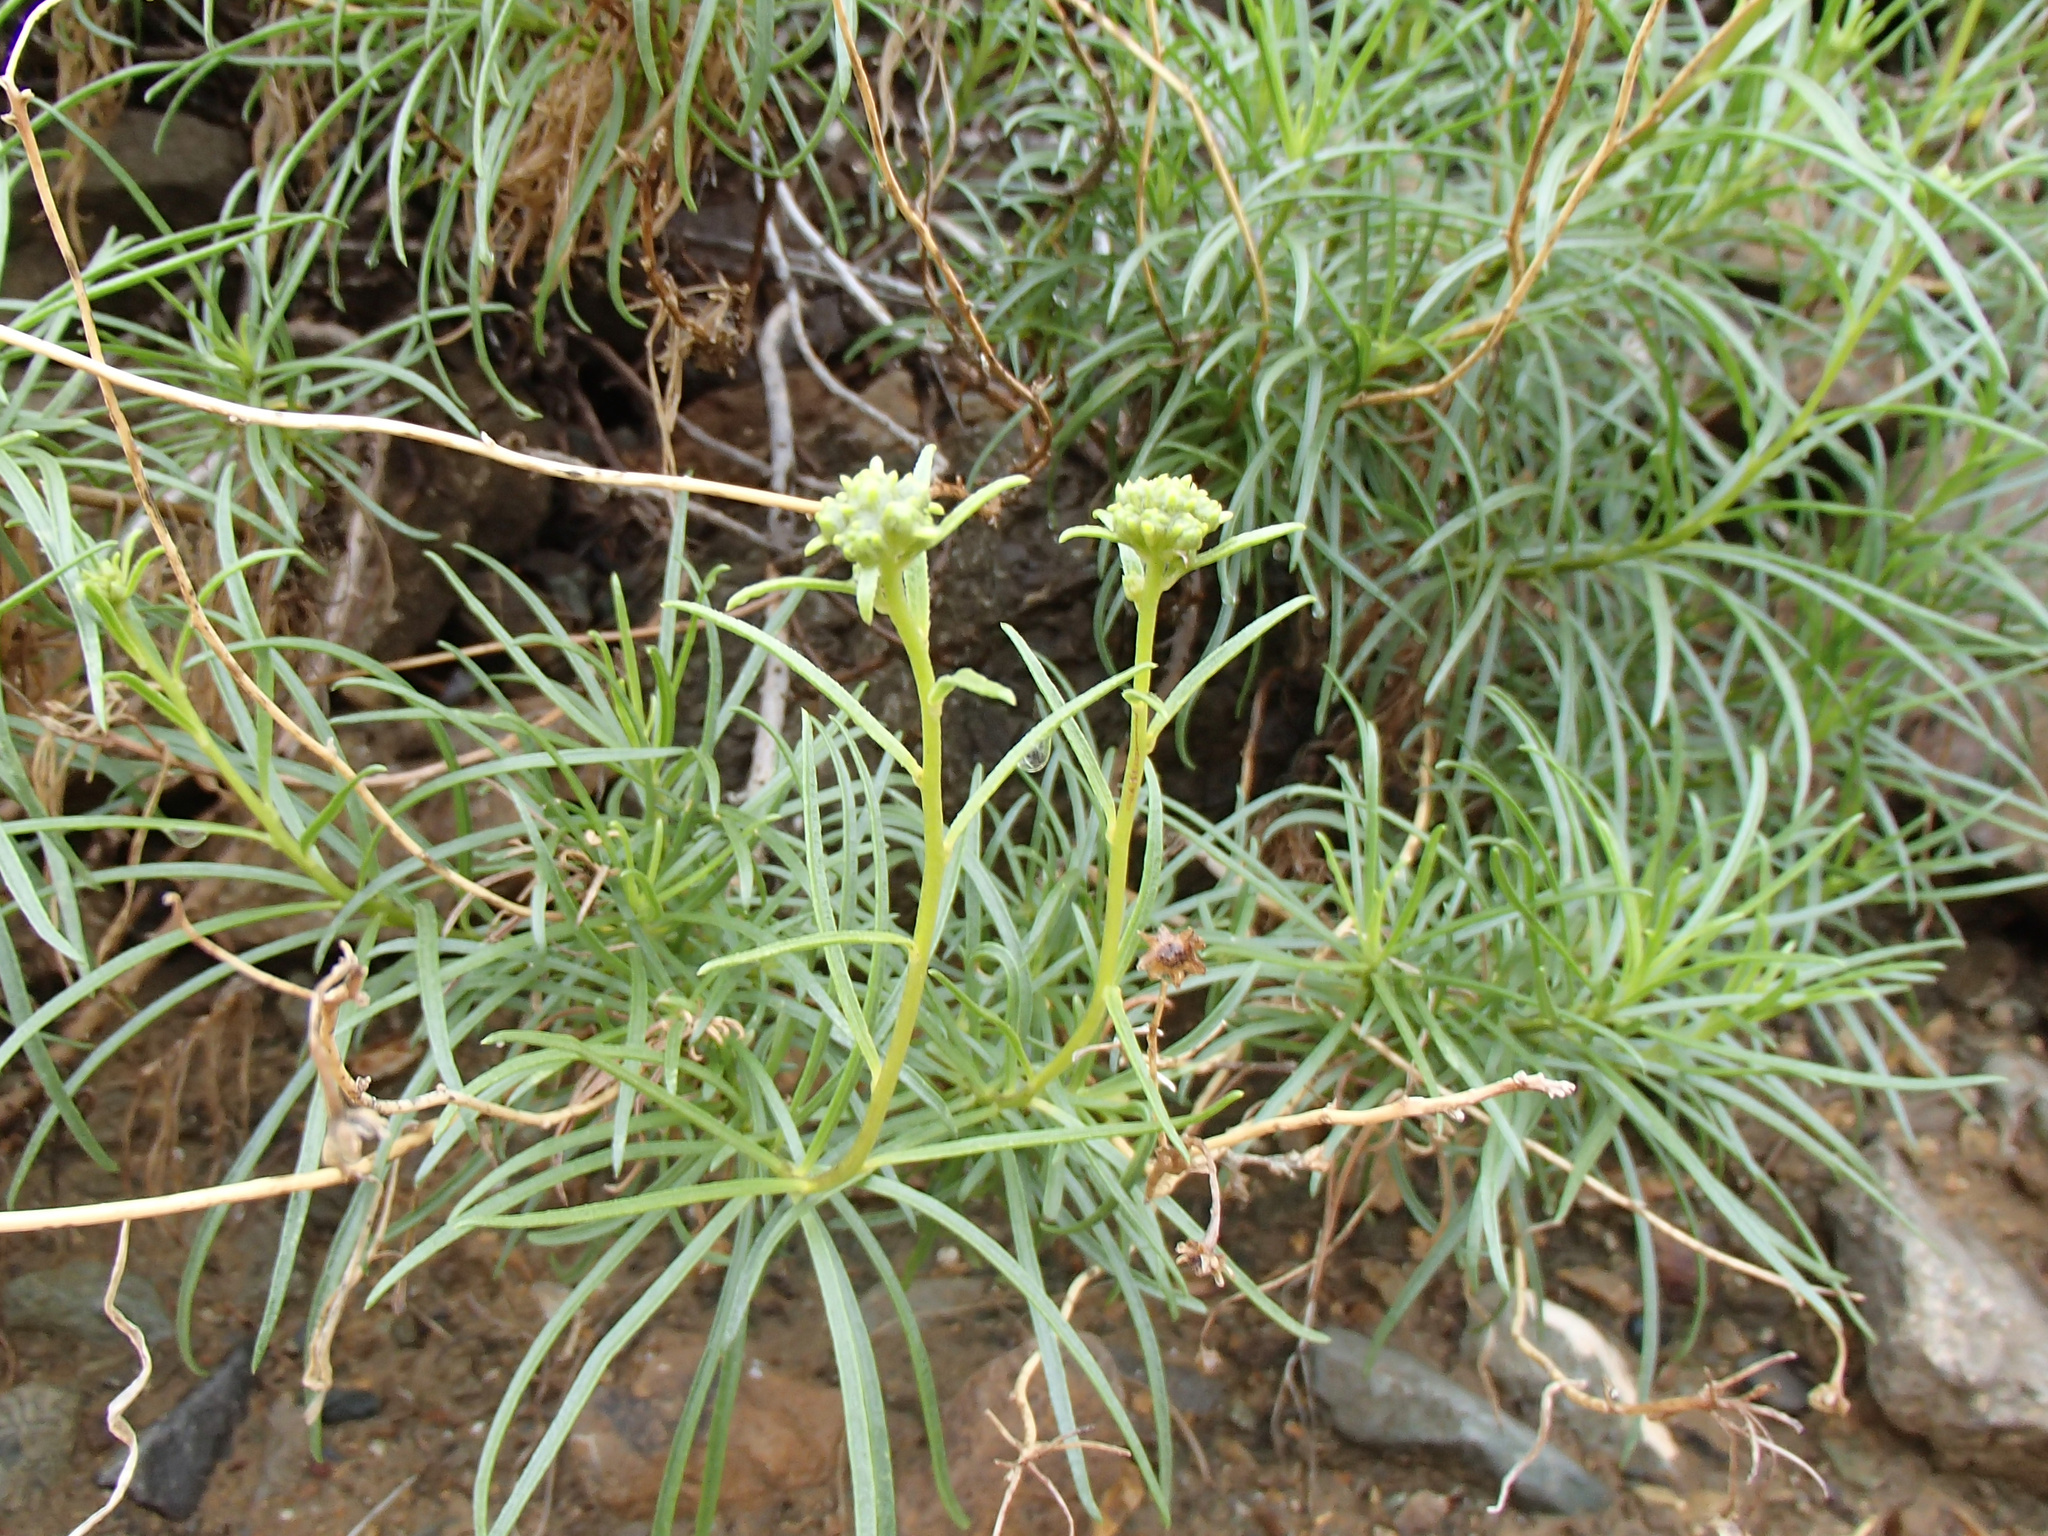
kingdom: Plantae
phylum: Tracheophyta
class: Magnoliopsida
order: Asterales
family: Asteraceae
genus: Encelia
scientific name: Encelia stenophylla
